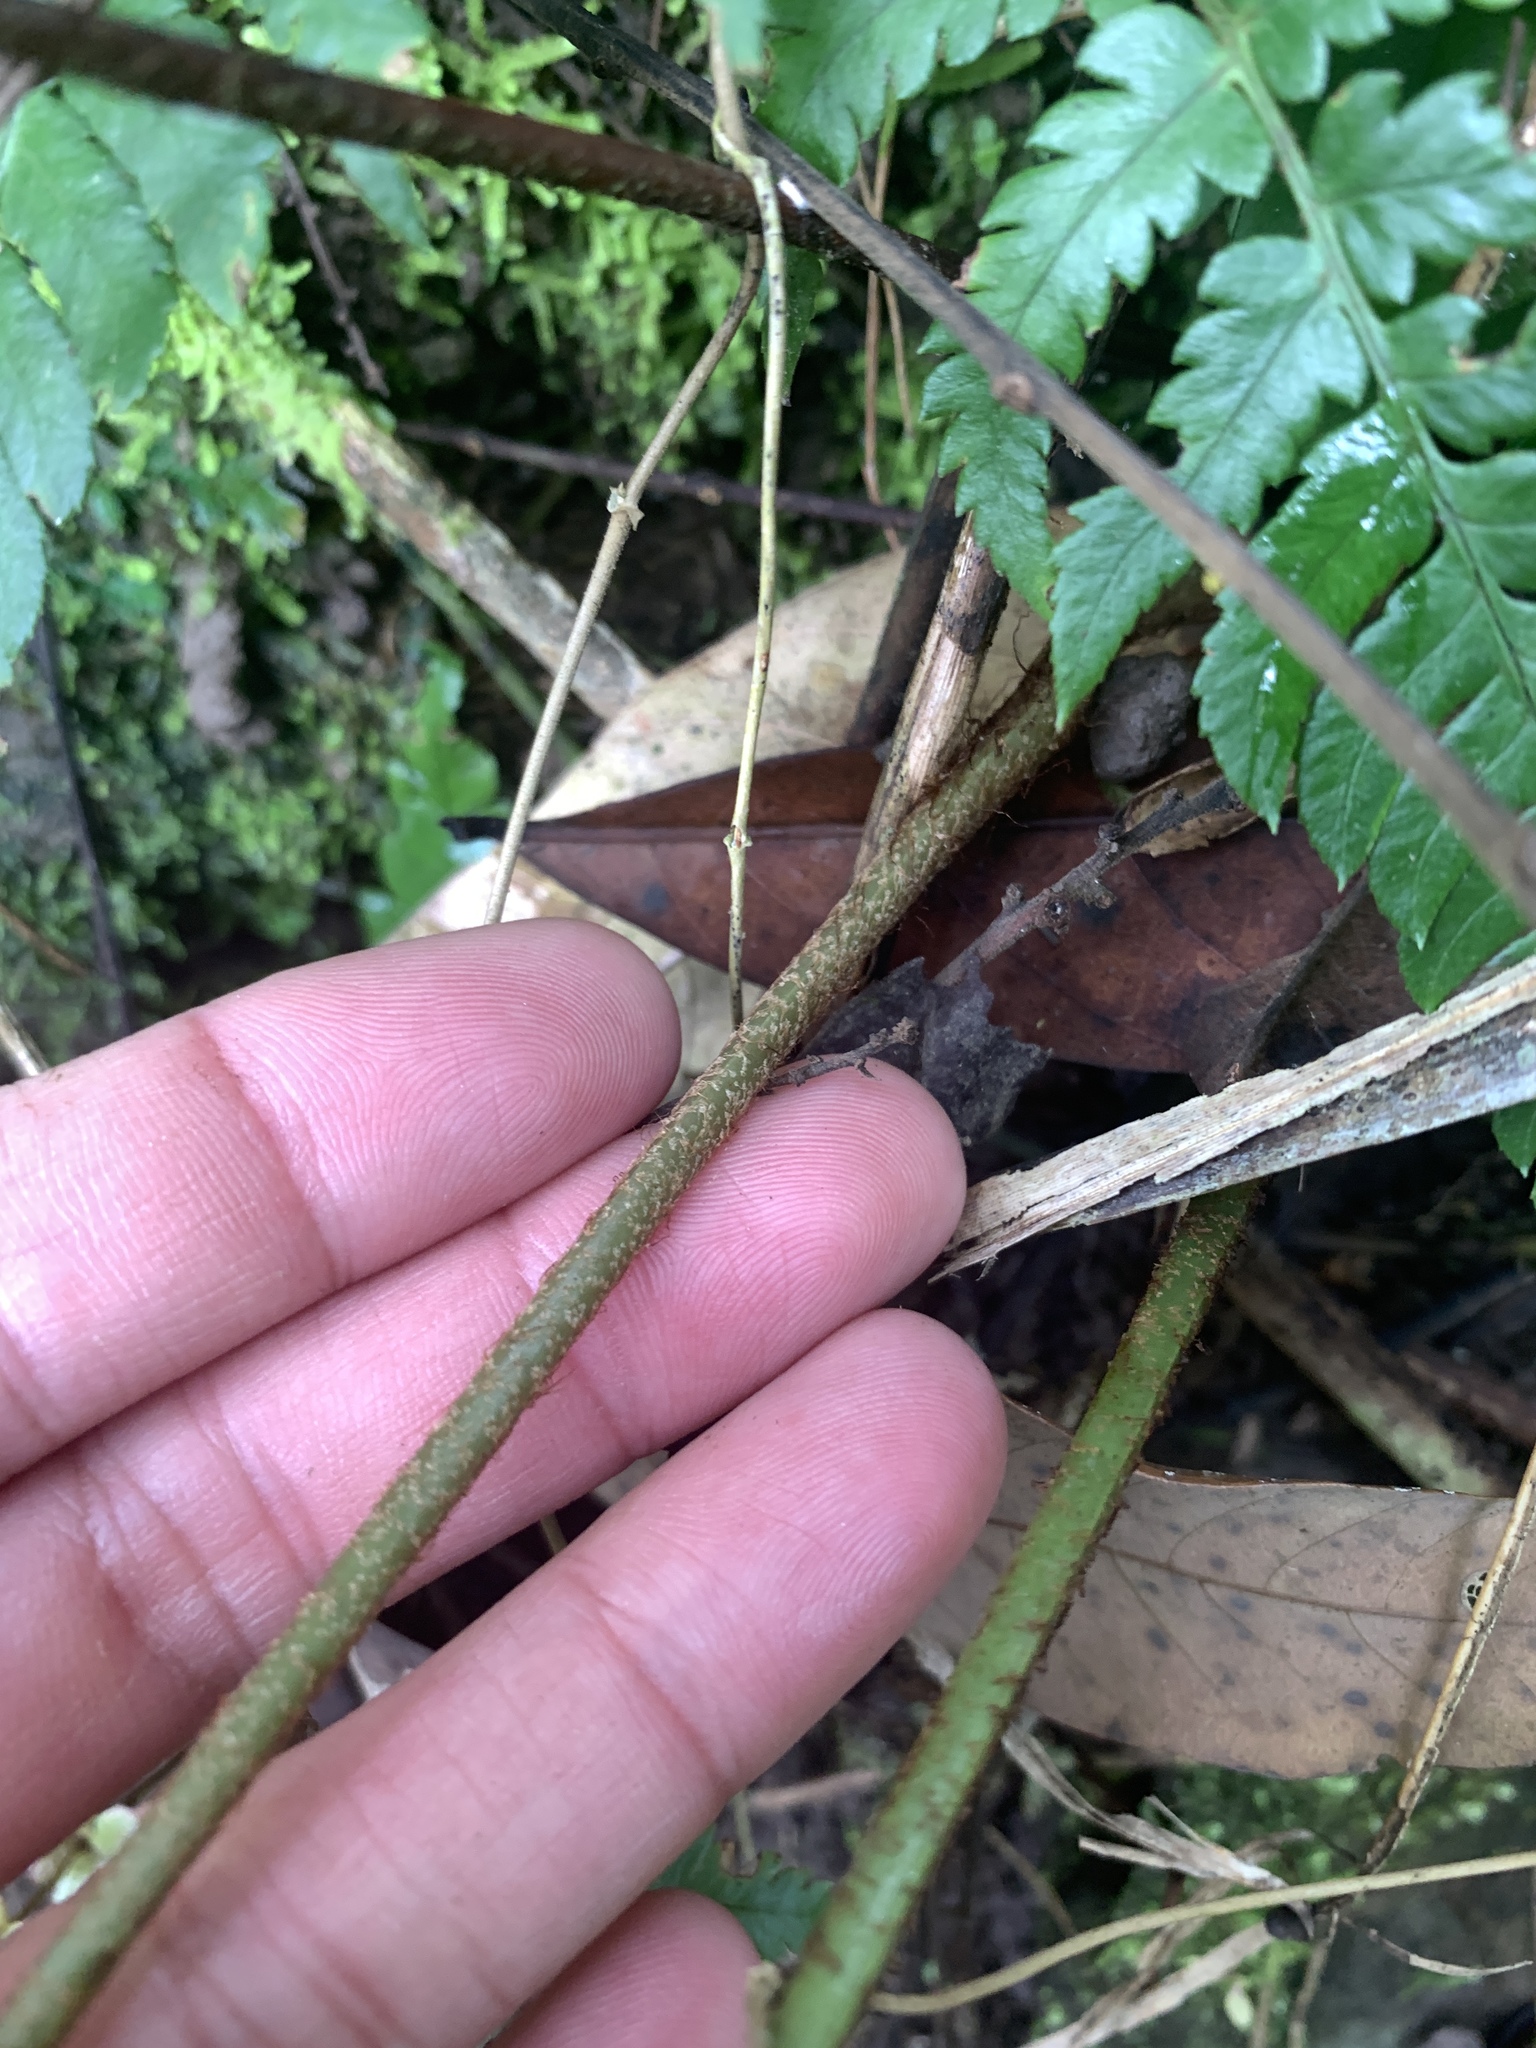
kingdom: Plantae
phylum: Tracheophyta
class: Polypodiopsida
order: Polypodiales
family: Dryopteridaceae
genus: Dryopteris
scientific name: Dryopteris varia
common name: Japanese holly fern
